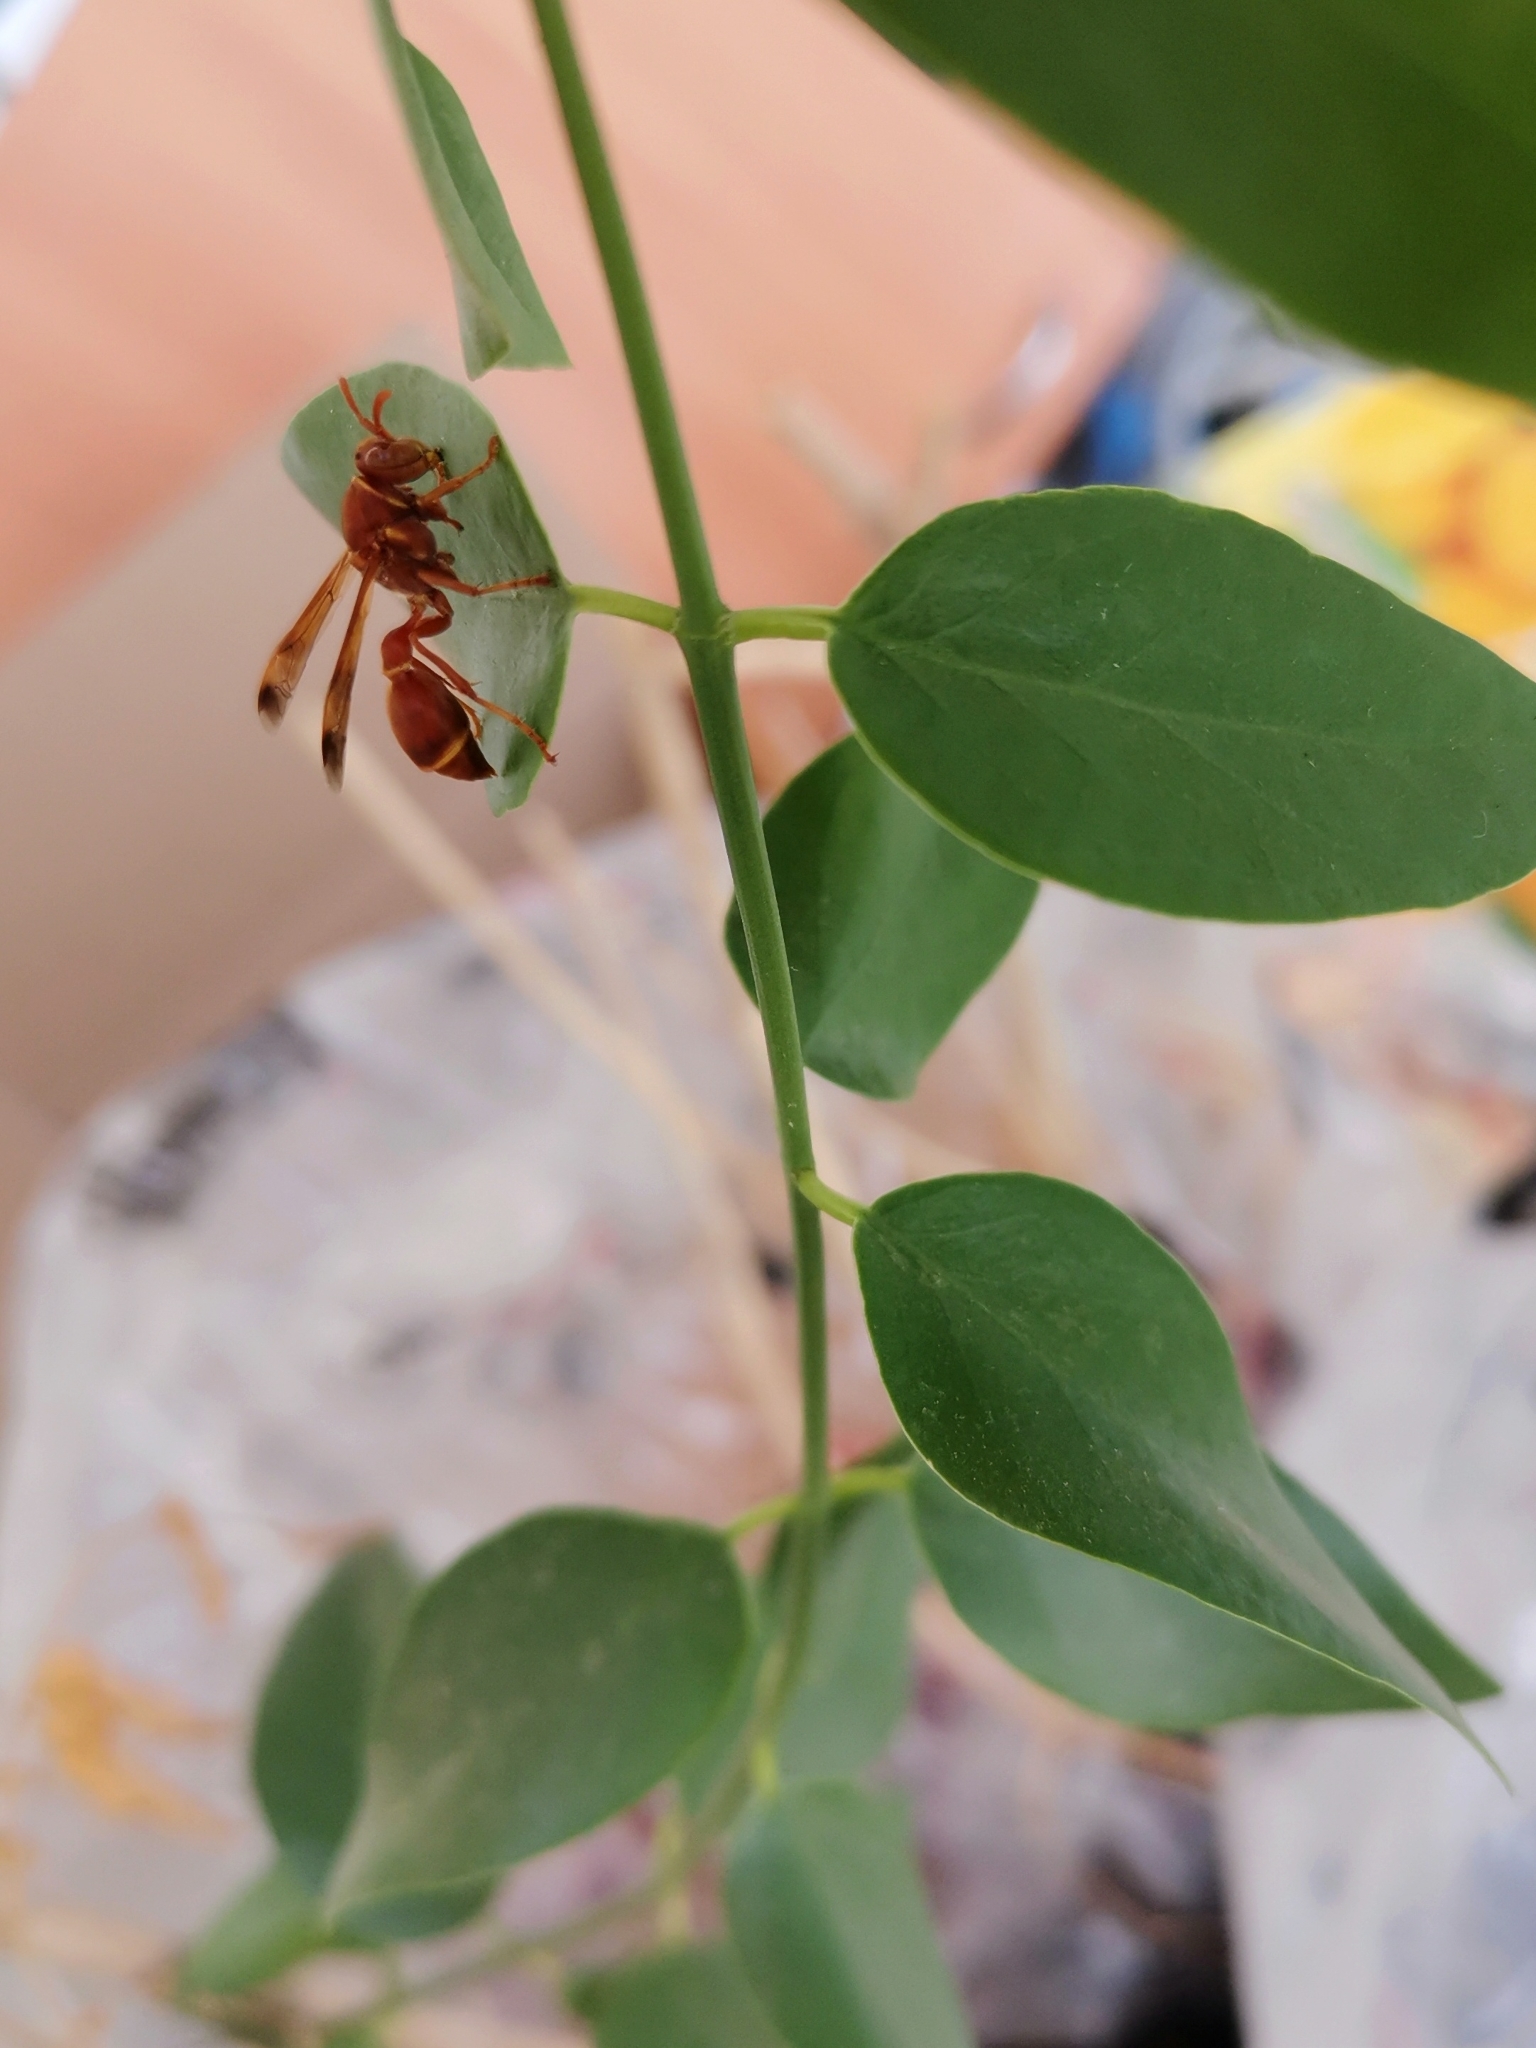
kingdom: Animalia
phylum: Arthropoda
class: Insecta
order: Hymenoptera
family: Vespidae
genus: Ropalidia
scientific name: Ropalidia marginata
